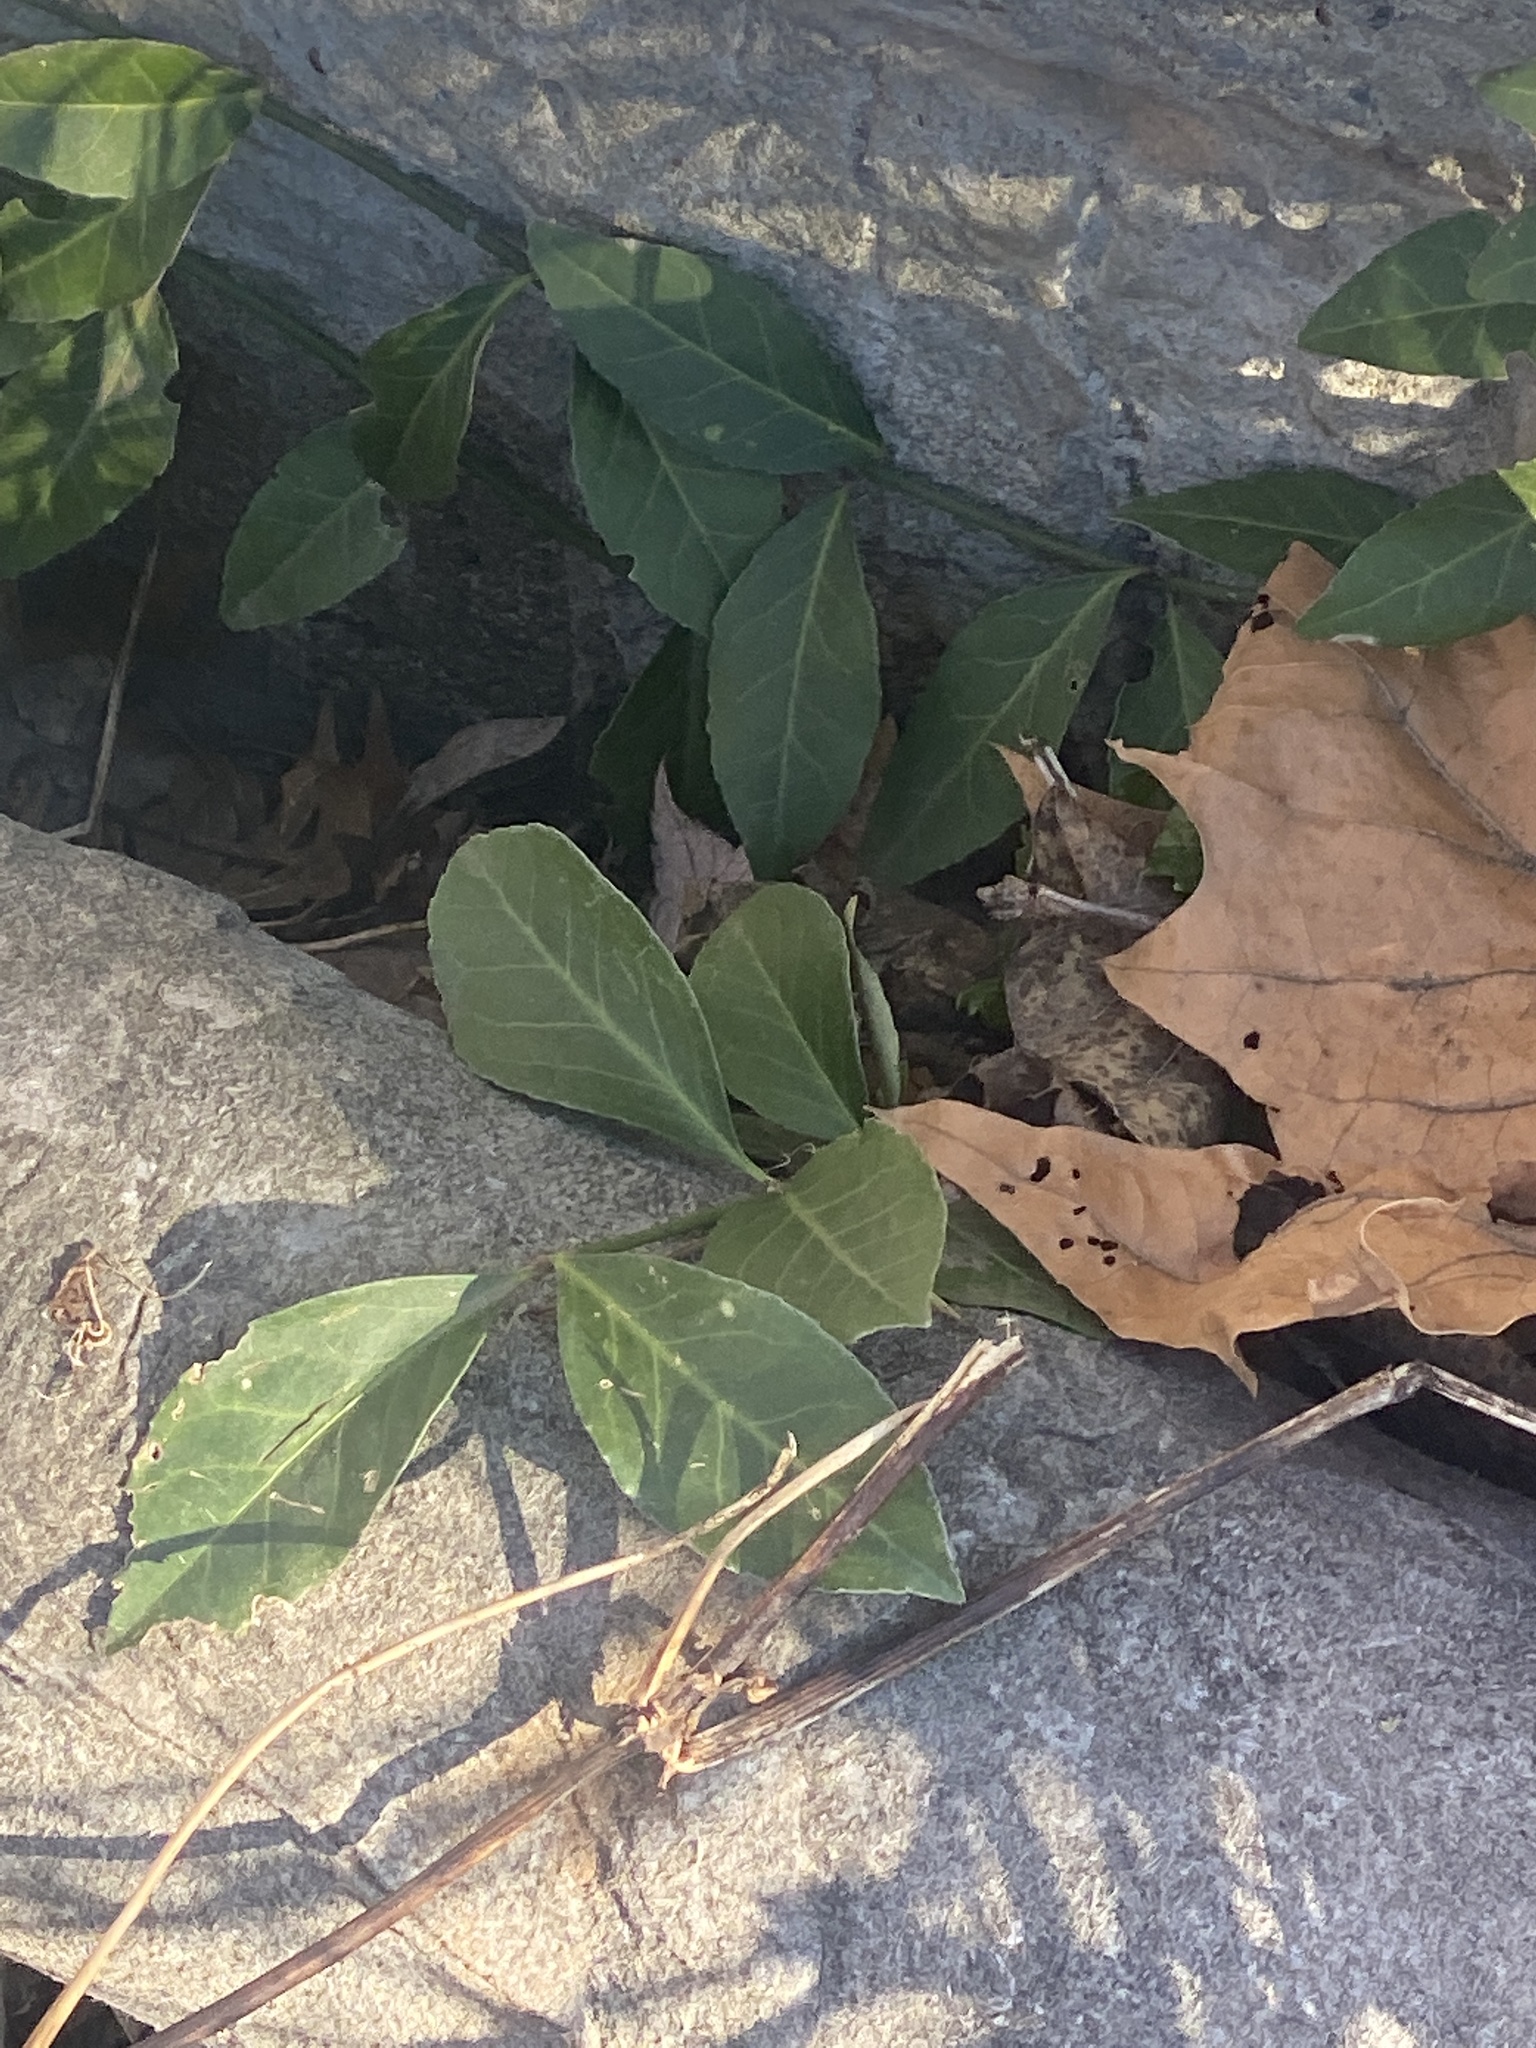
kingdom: Plantae
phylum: Tracheophyta
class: Magnoliopsida
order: Celastrales
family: Celastraceae
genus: Euonymus
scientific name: Euonymus fortunei
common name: Climbing euonymus
